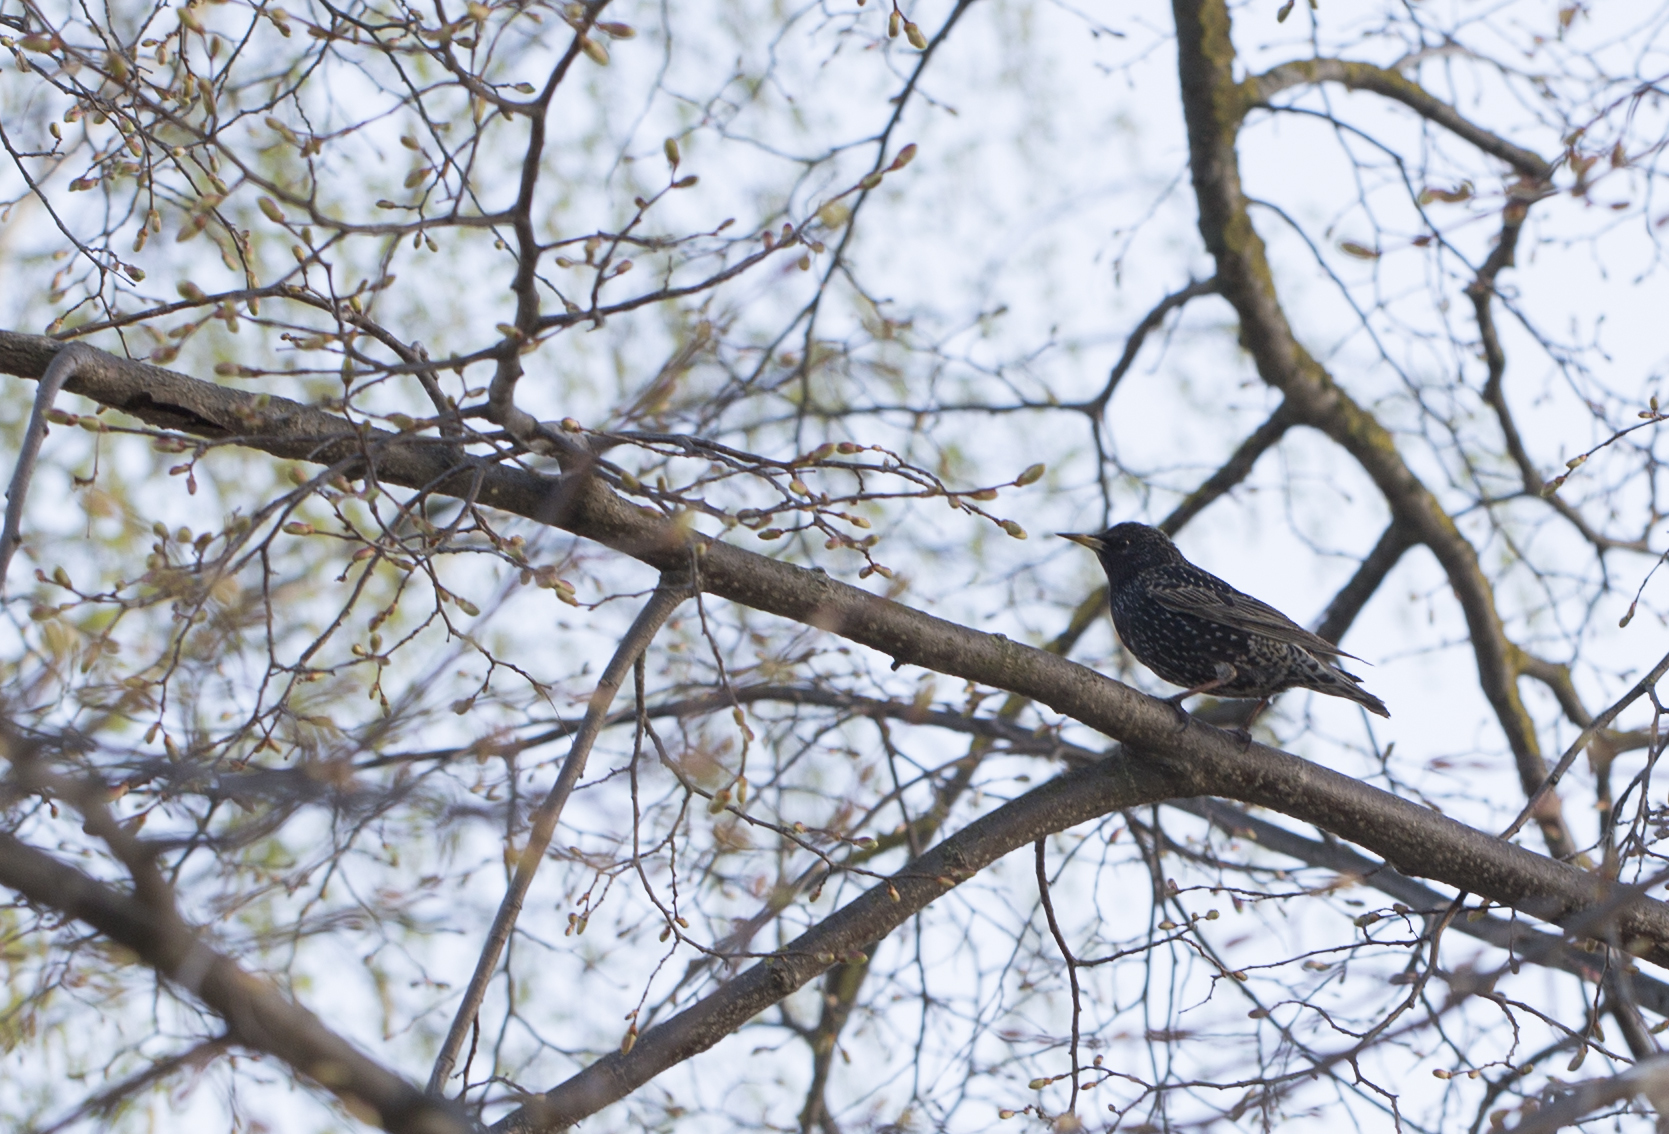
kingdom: Animalia
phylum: Chordata
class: Aves
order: Passeriformes
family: Sturnidae
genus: Sturnus
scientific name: Sturnus vulgaris
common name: Common starling
